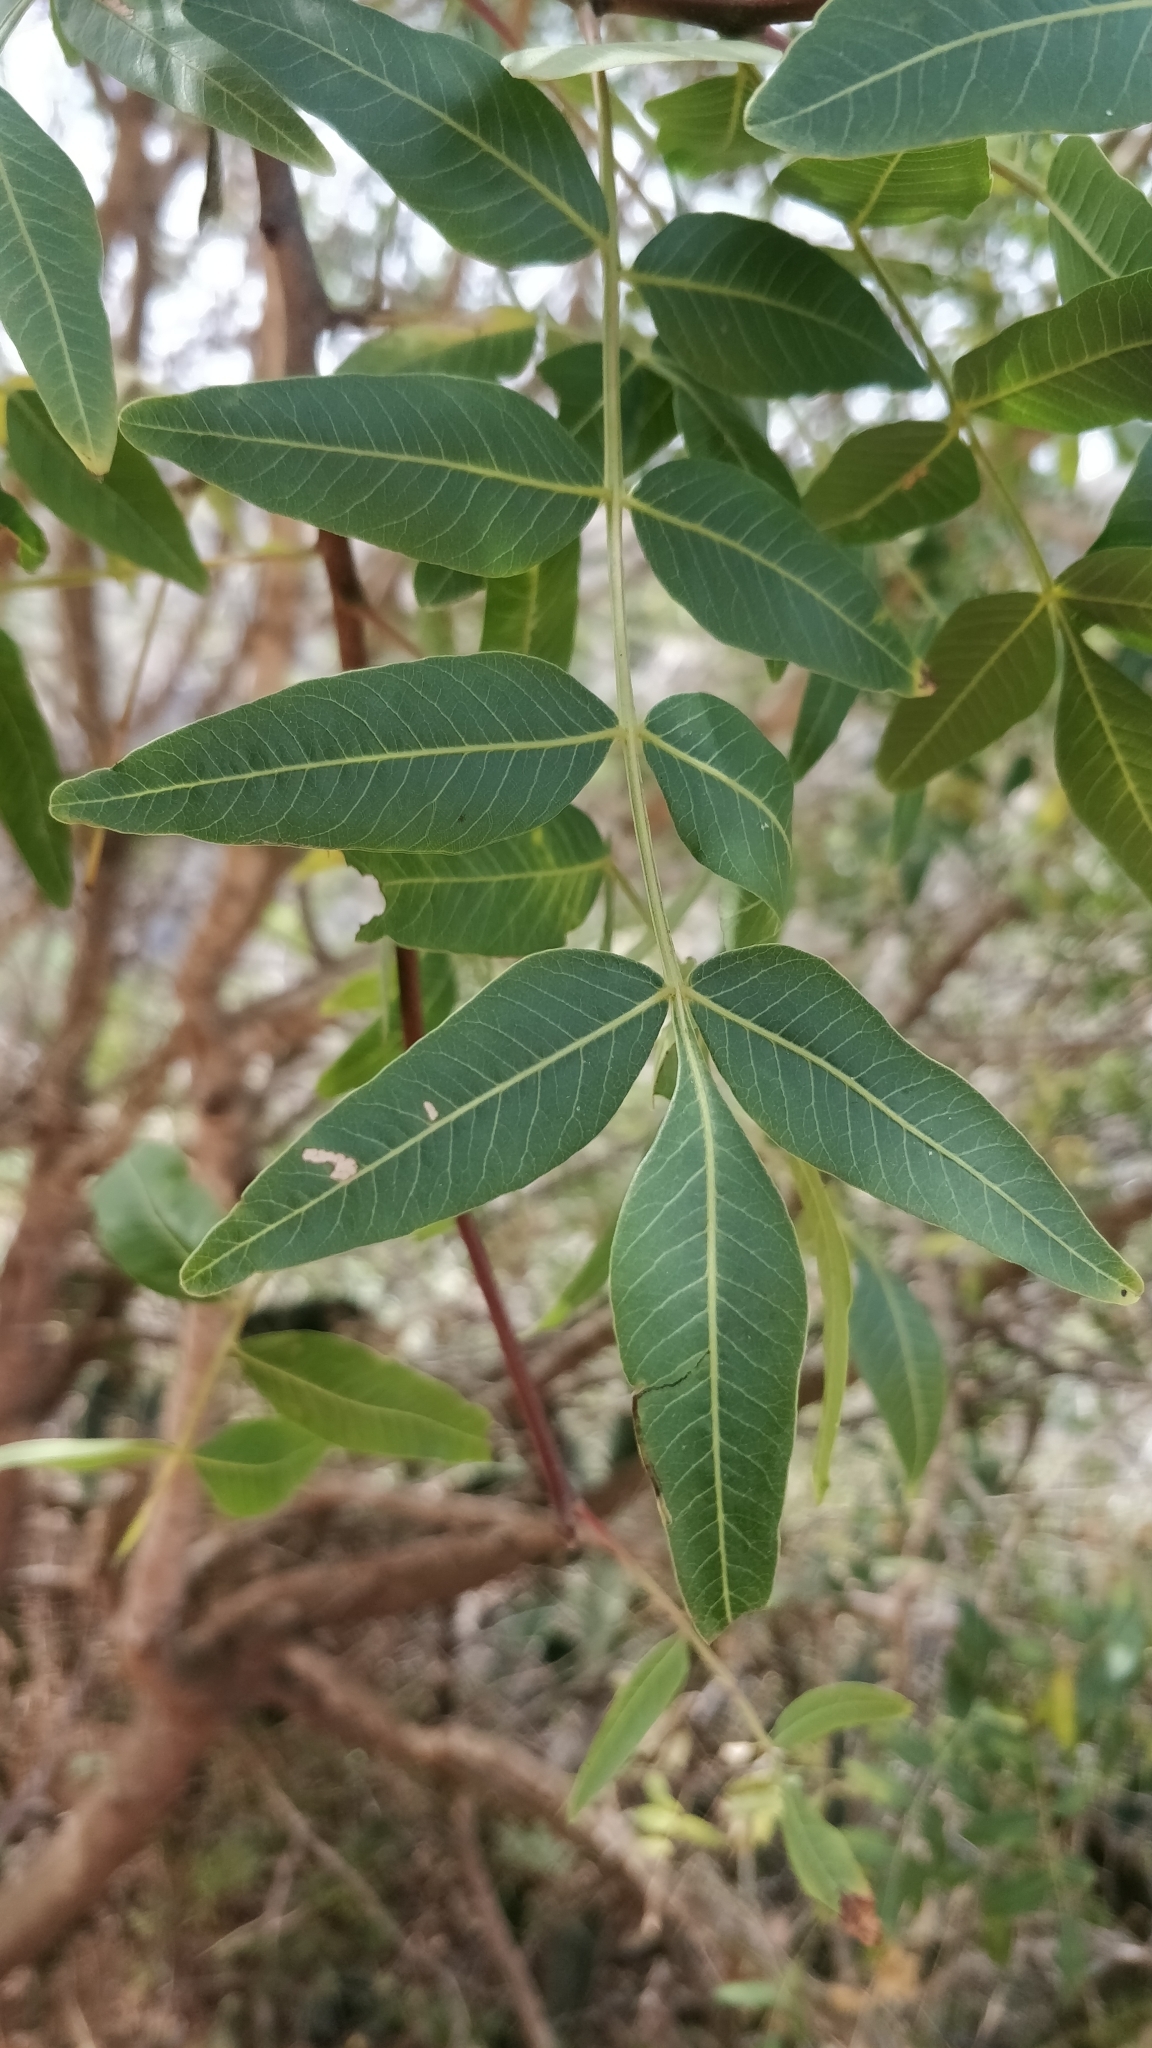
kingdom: Plantae
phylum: Tracheophyta
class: Magnoliopsida
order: Sapindales
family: Anacardiaceae
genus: Pistacia
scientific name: Pistacia atlantica
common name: Mt. atlas mastic tree
